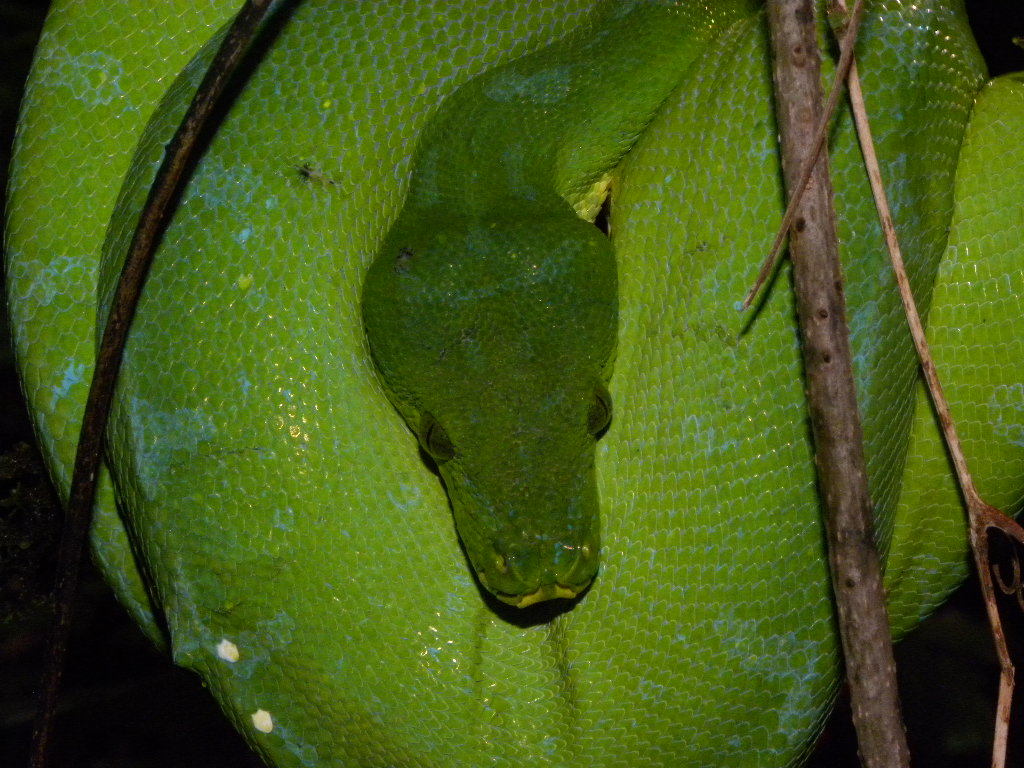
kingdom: Animalia
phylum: Chordata
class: Squamata
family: Pythonidae
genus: Morelia
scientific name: Morelia azurea
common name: Northern green python
